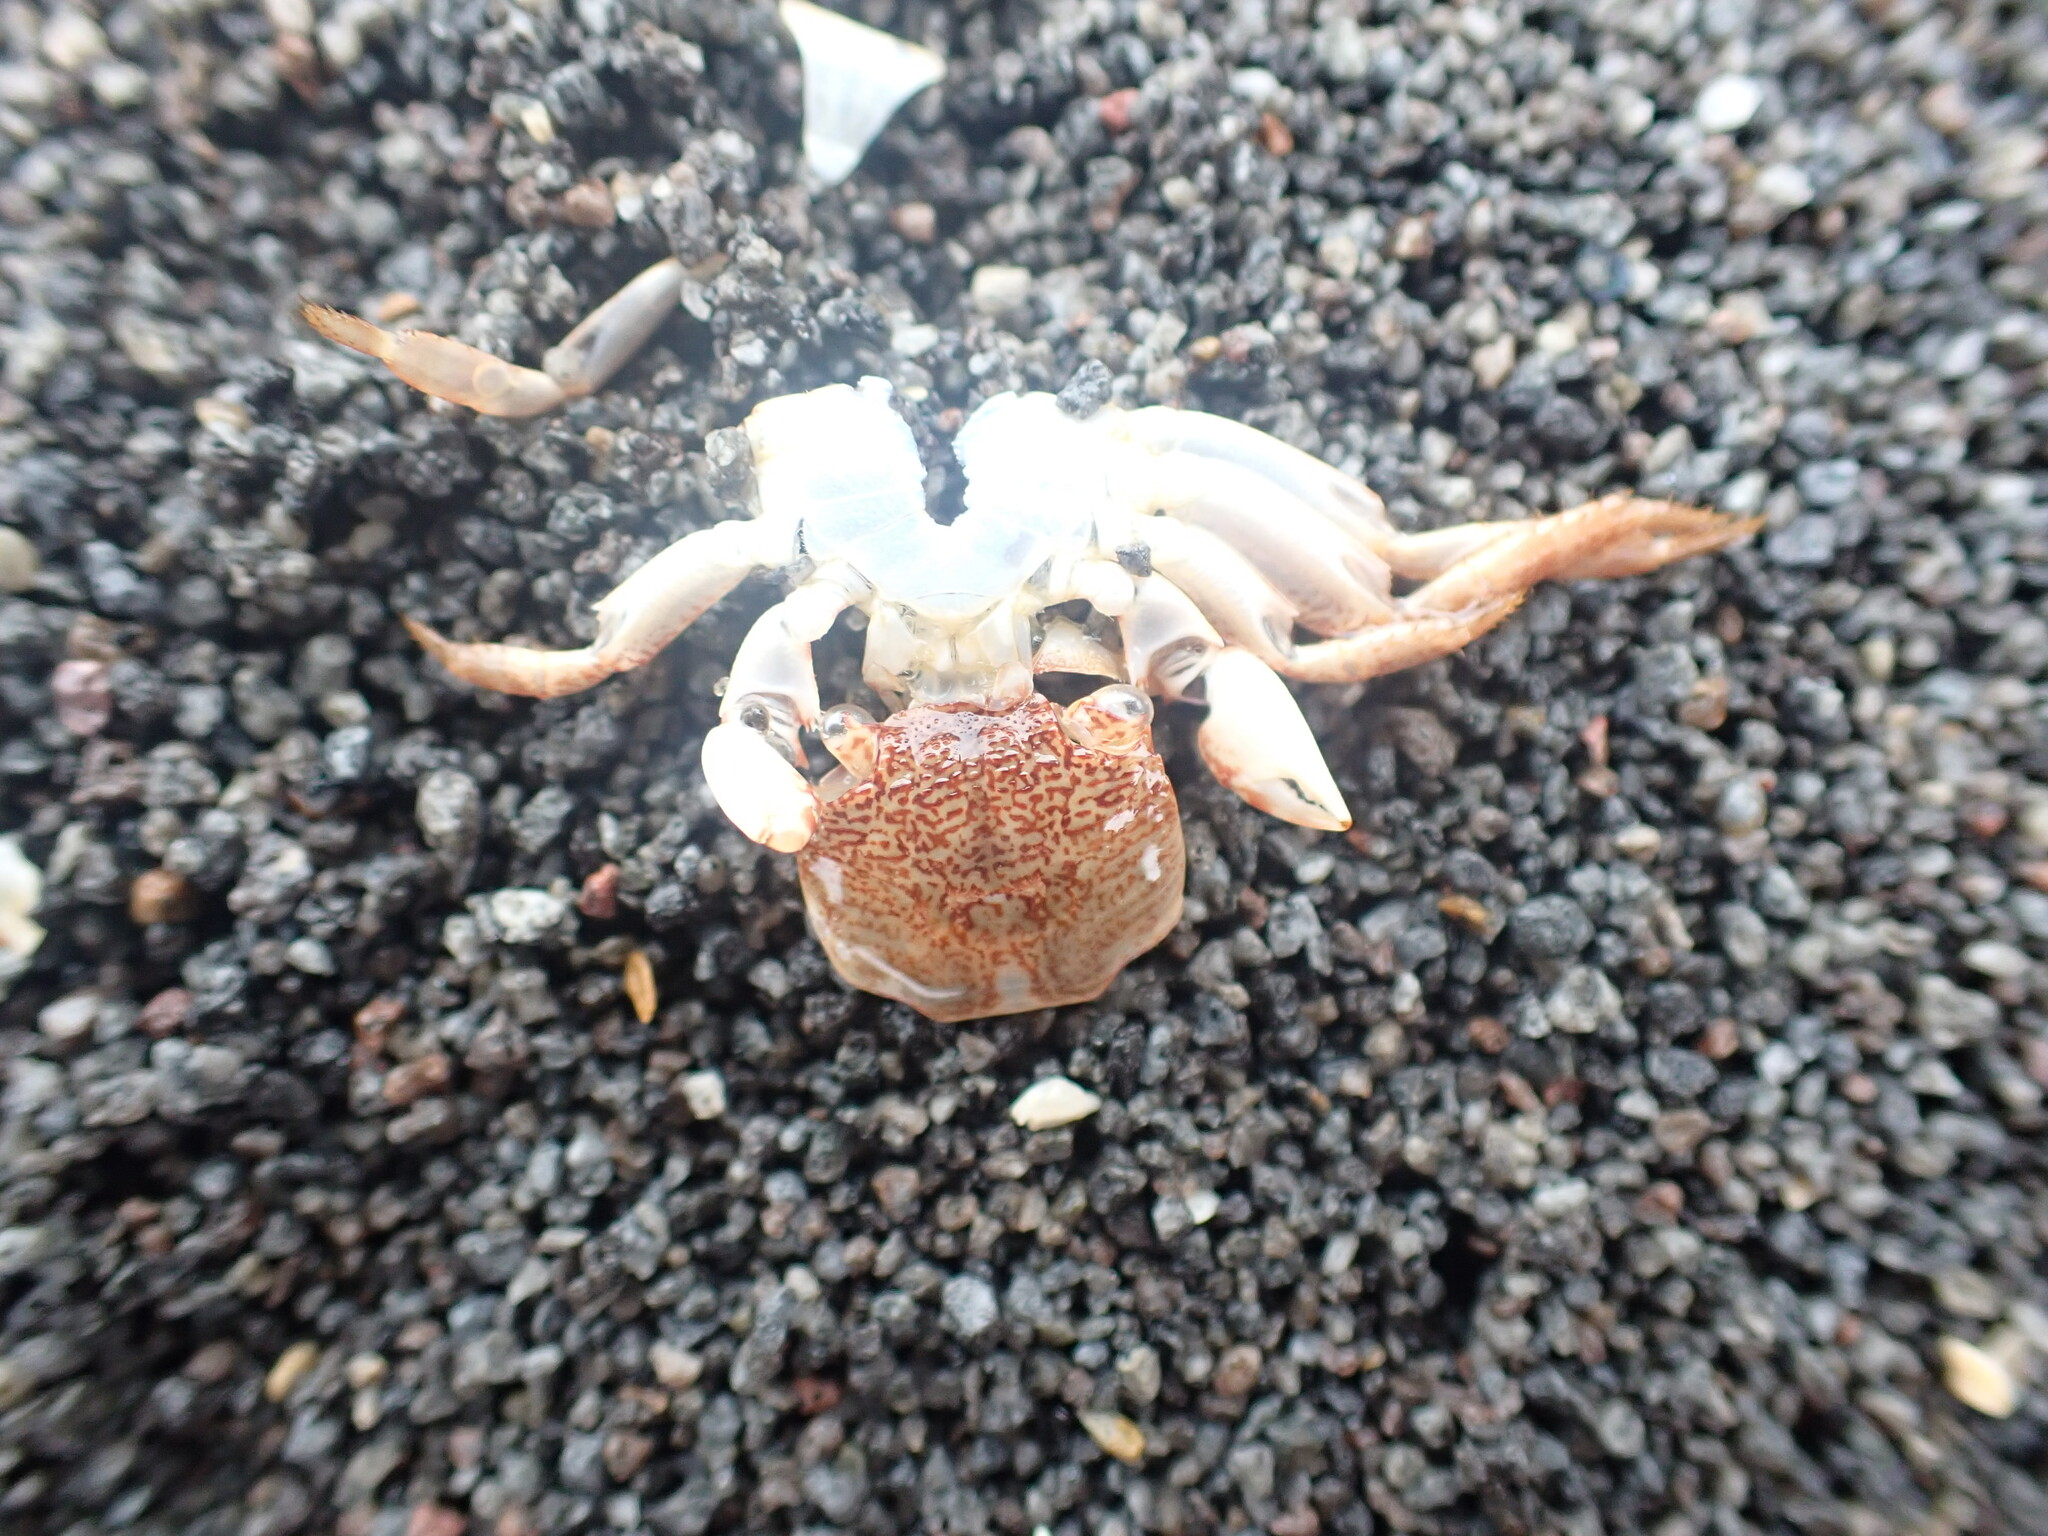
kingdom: Animalia
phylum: Arthropoda
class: Malacostraca
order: Decapoda
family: Grapsidae
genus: Leptograpsus
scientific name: Leptograpsus variegatus
